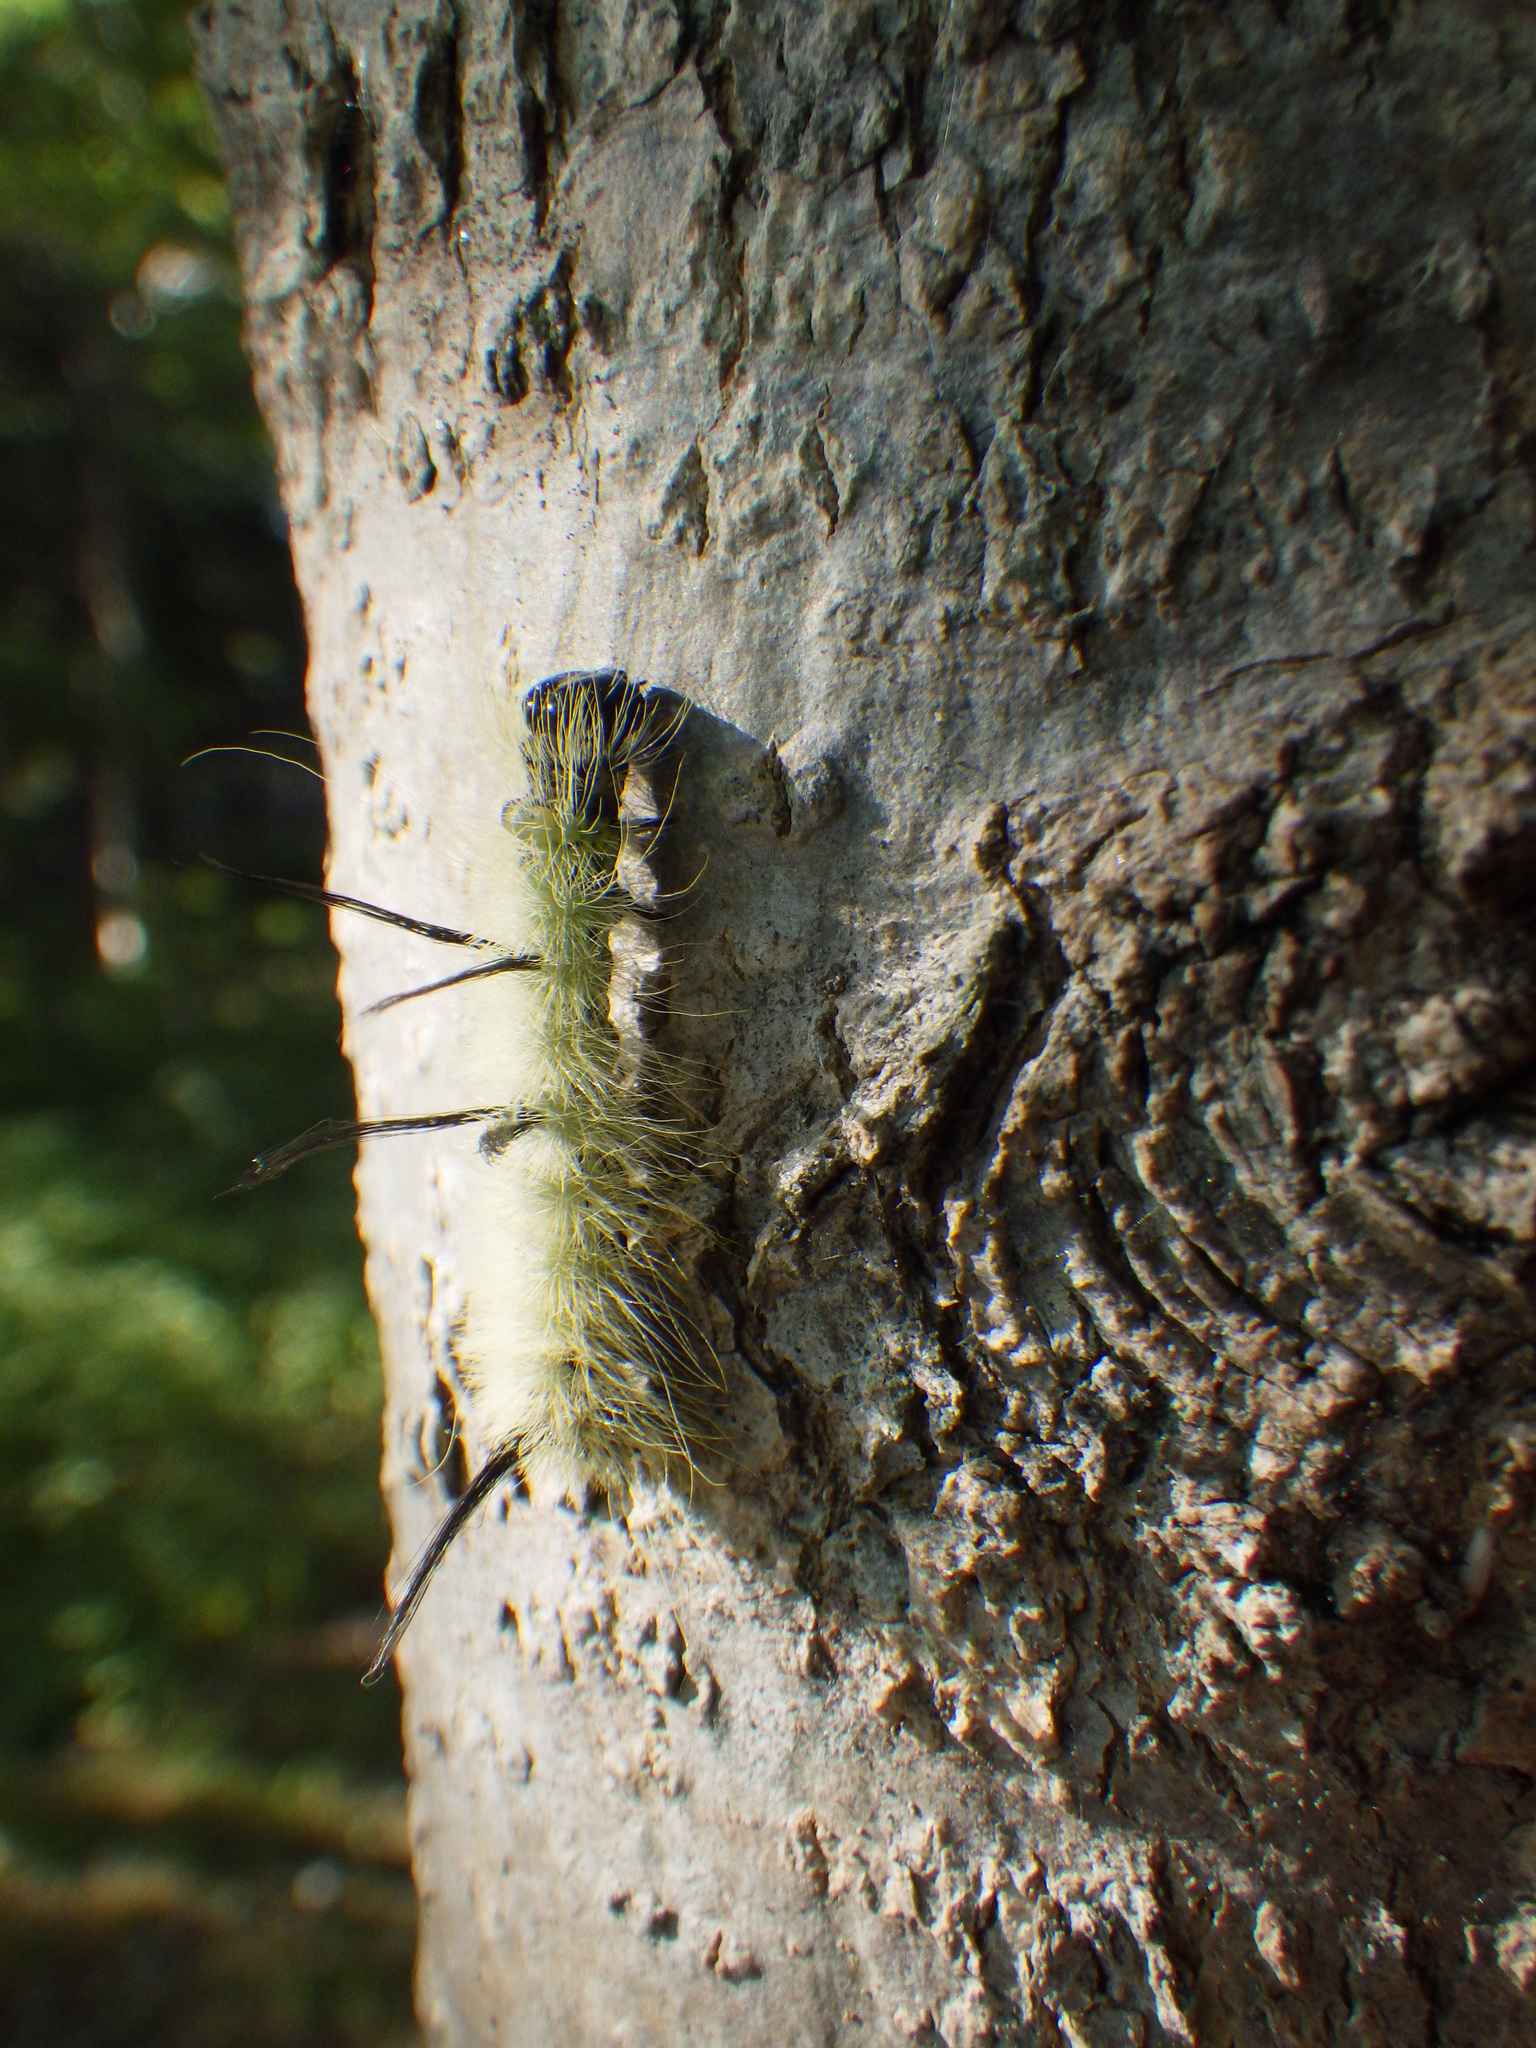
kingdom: Animalia
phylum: Arthropoda
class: Insecta
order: Lepidoptera
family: Noctuidae
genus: Acronicta
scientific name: Acronicta americana
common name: American dagger
